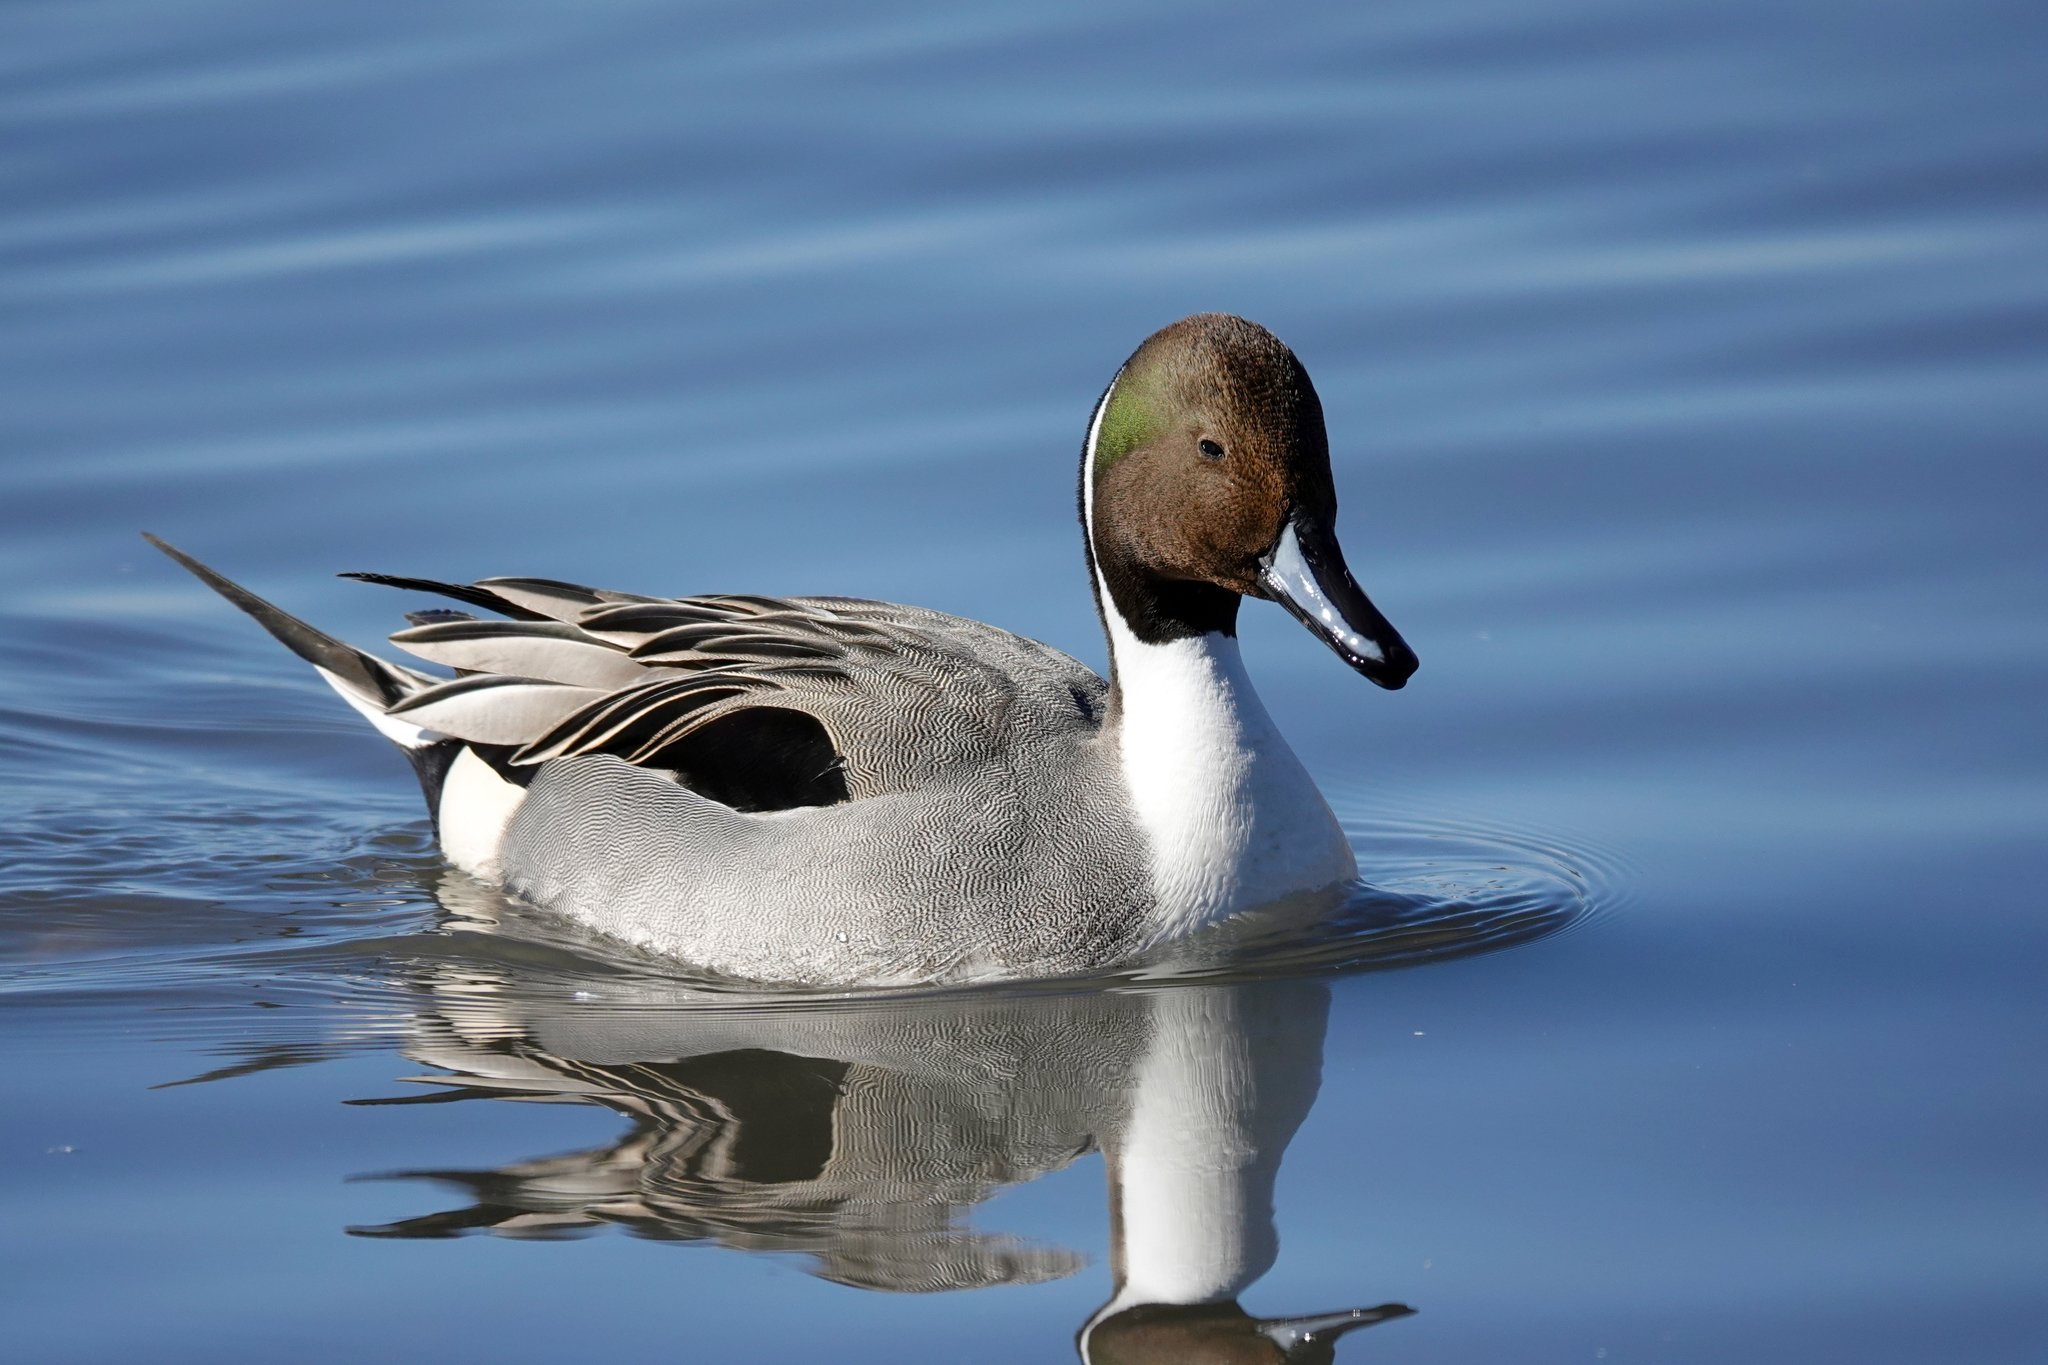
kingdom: Animalia
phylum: Chordata
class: Aves
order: Anseriformes
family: Anatidae
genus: Anas
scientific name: Anas acuta
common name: Northern pintail
